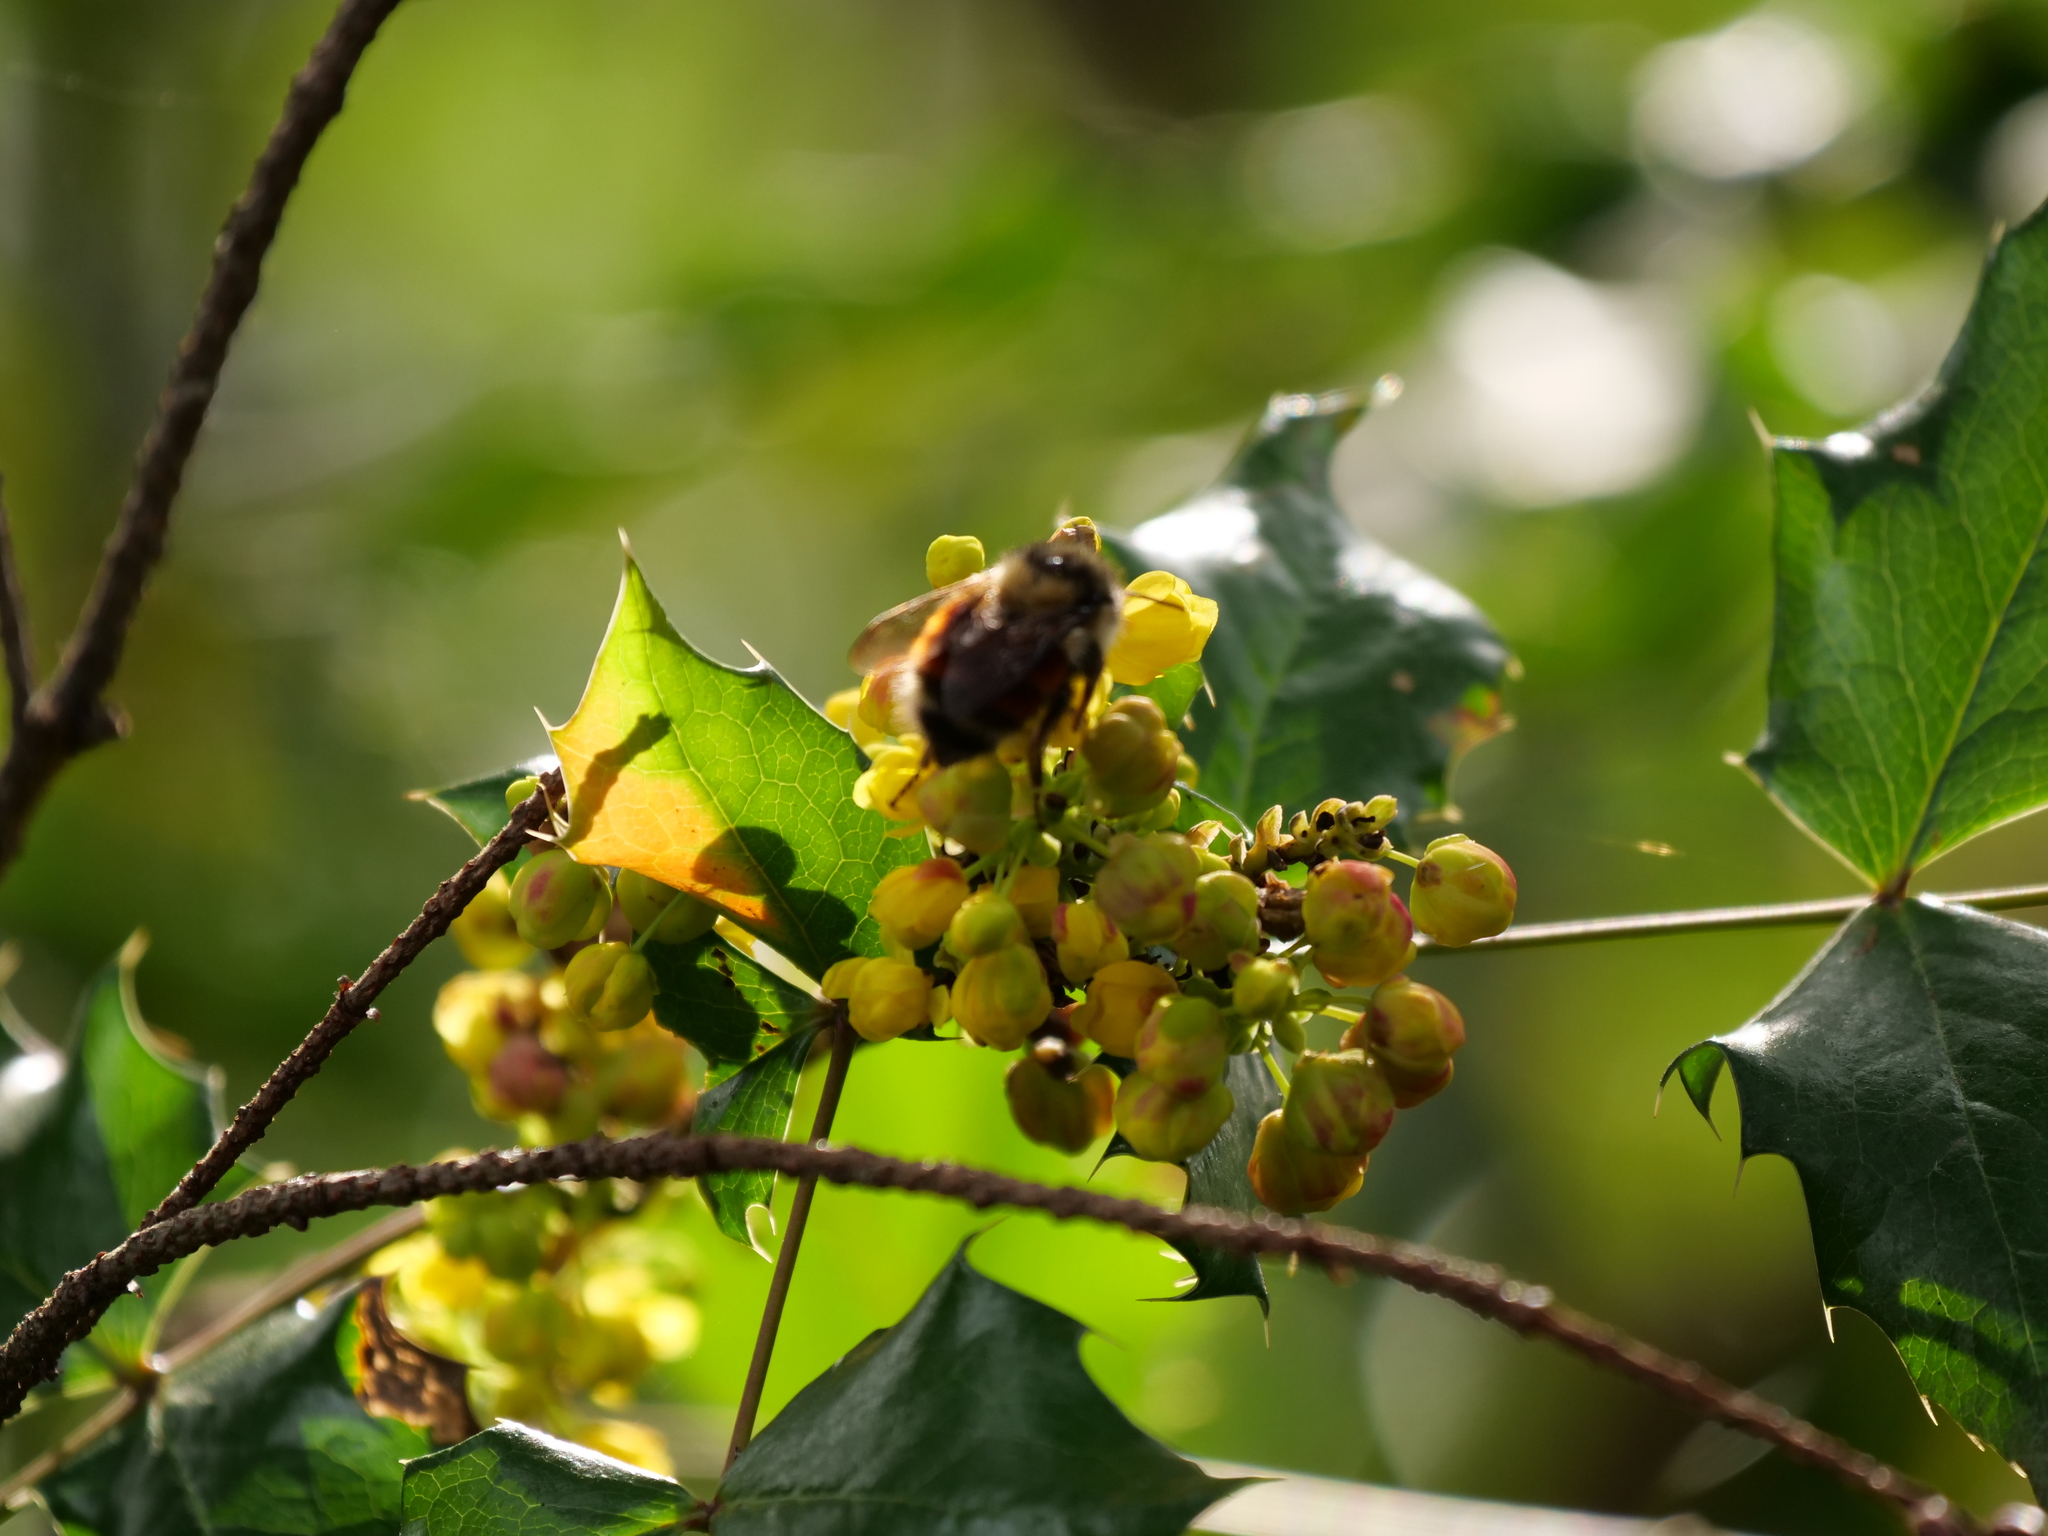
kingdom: Animalia
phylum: Arthropoda
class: Insecta
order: Hymenoptera
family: Apidae
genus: Bombus
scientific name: Bombus melanopygus
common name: Black tail bumble bee
